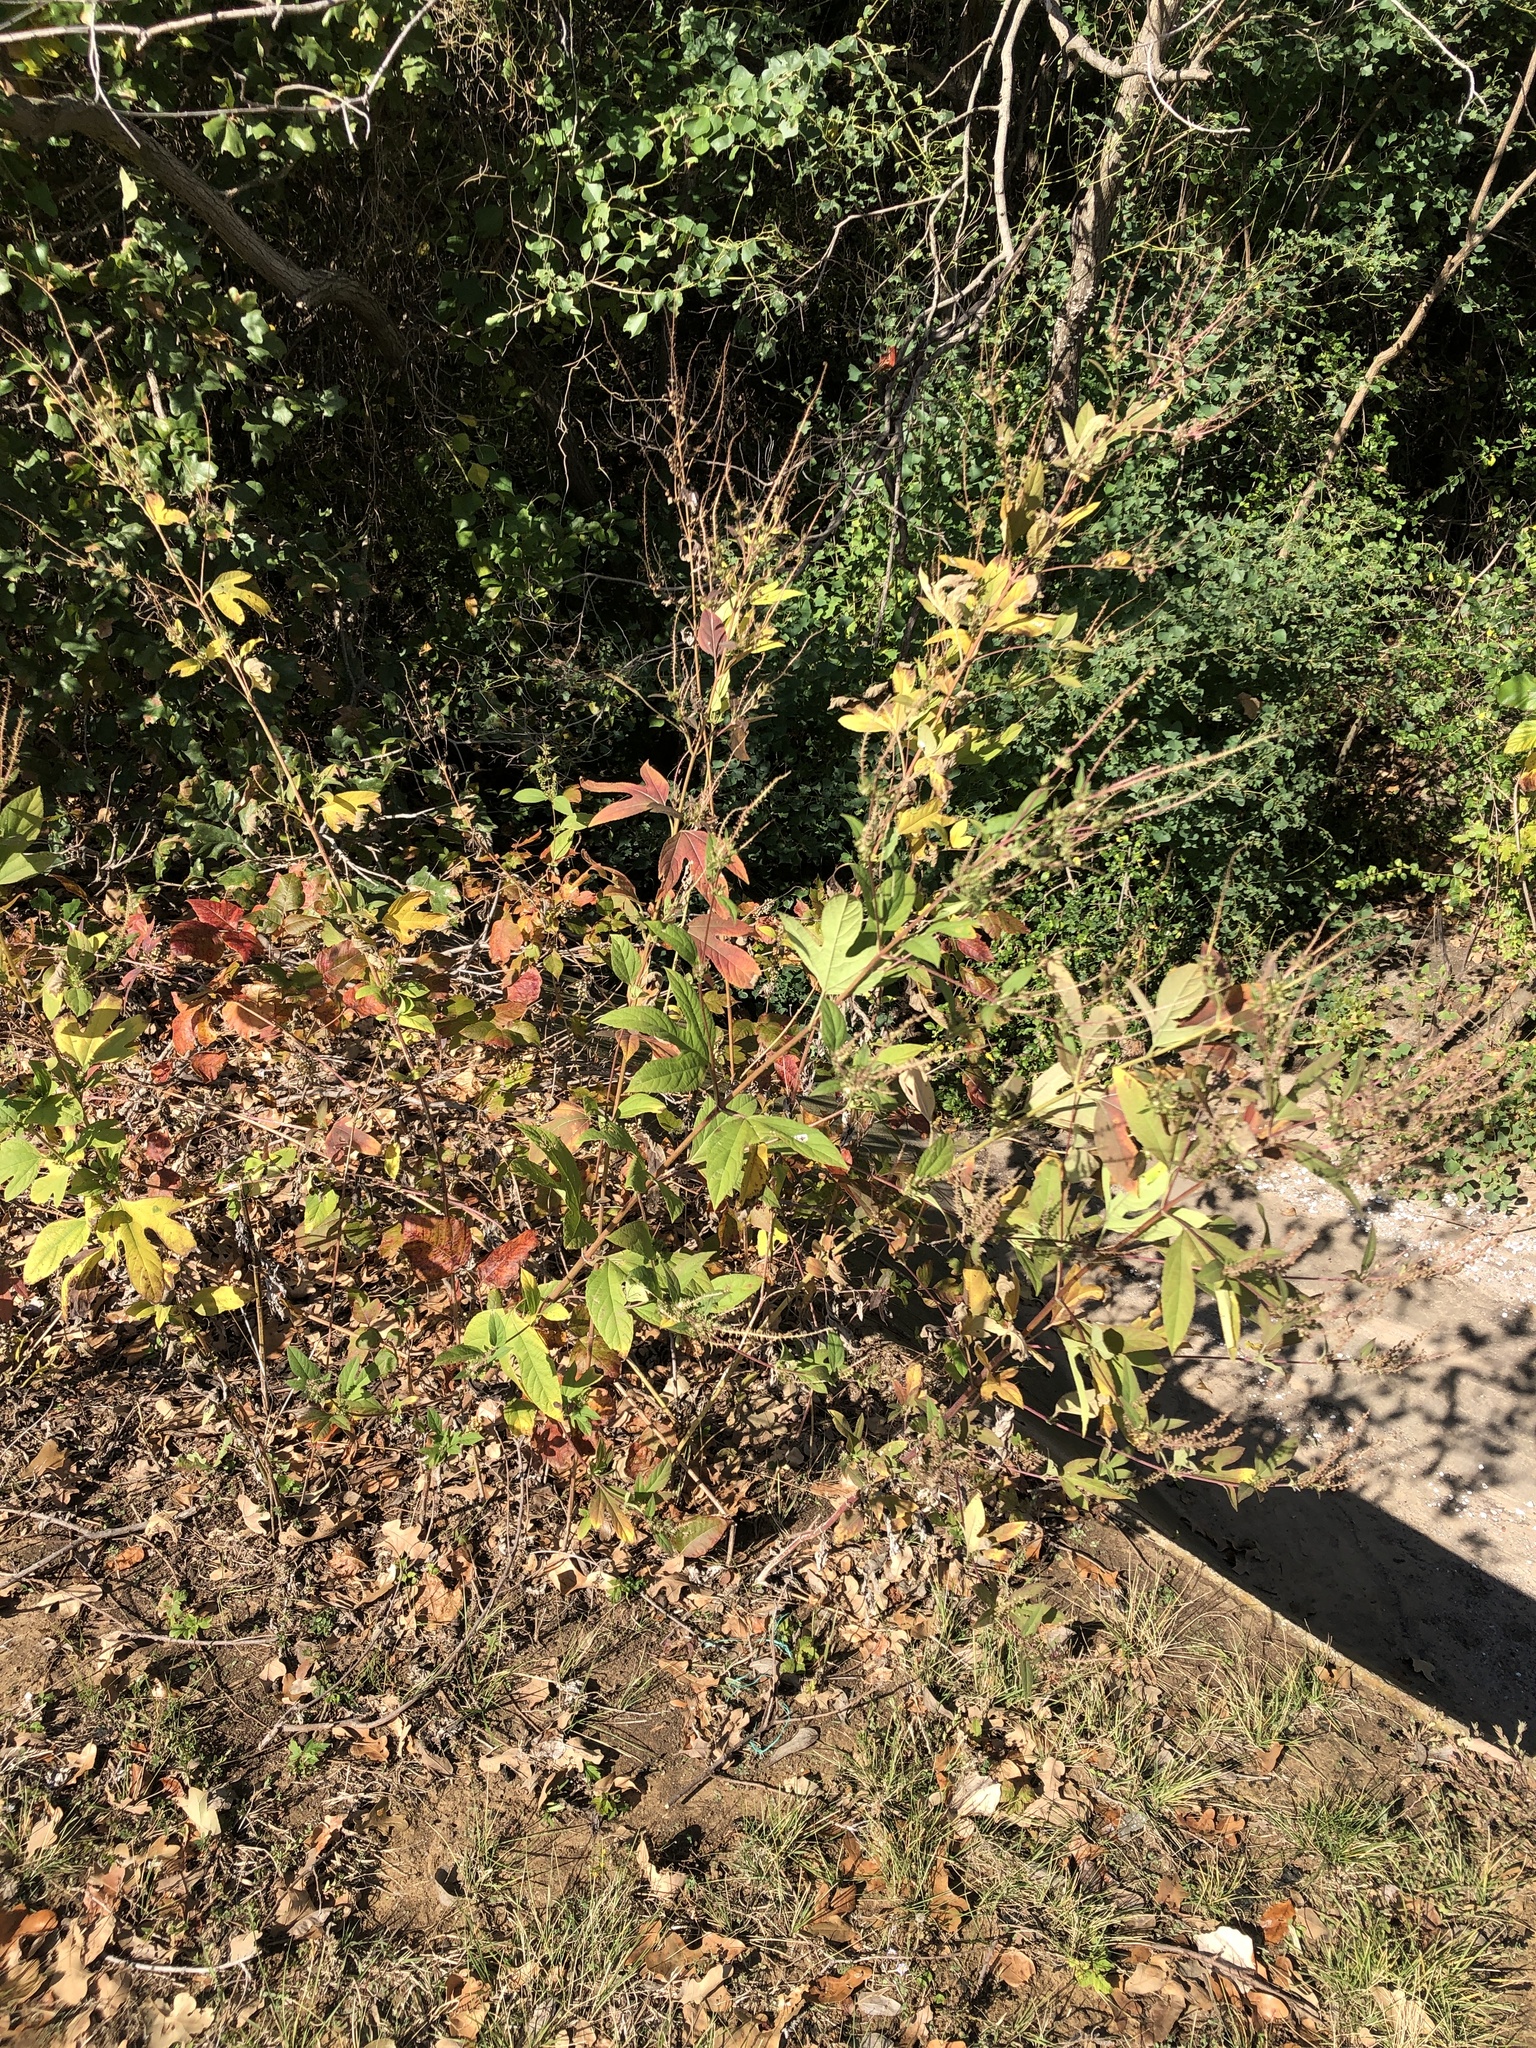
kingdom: Plantae
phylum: Tracheophyta
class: Magnoliopsida
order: Asterales
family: Asteraceae
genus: Ambrosia
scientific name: Ambrosia trifida
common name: Giant ragweed
